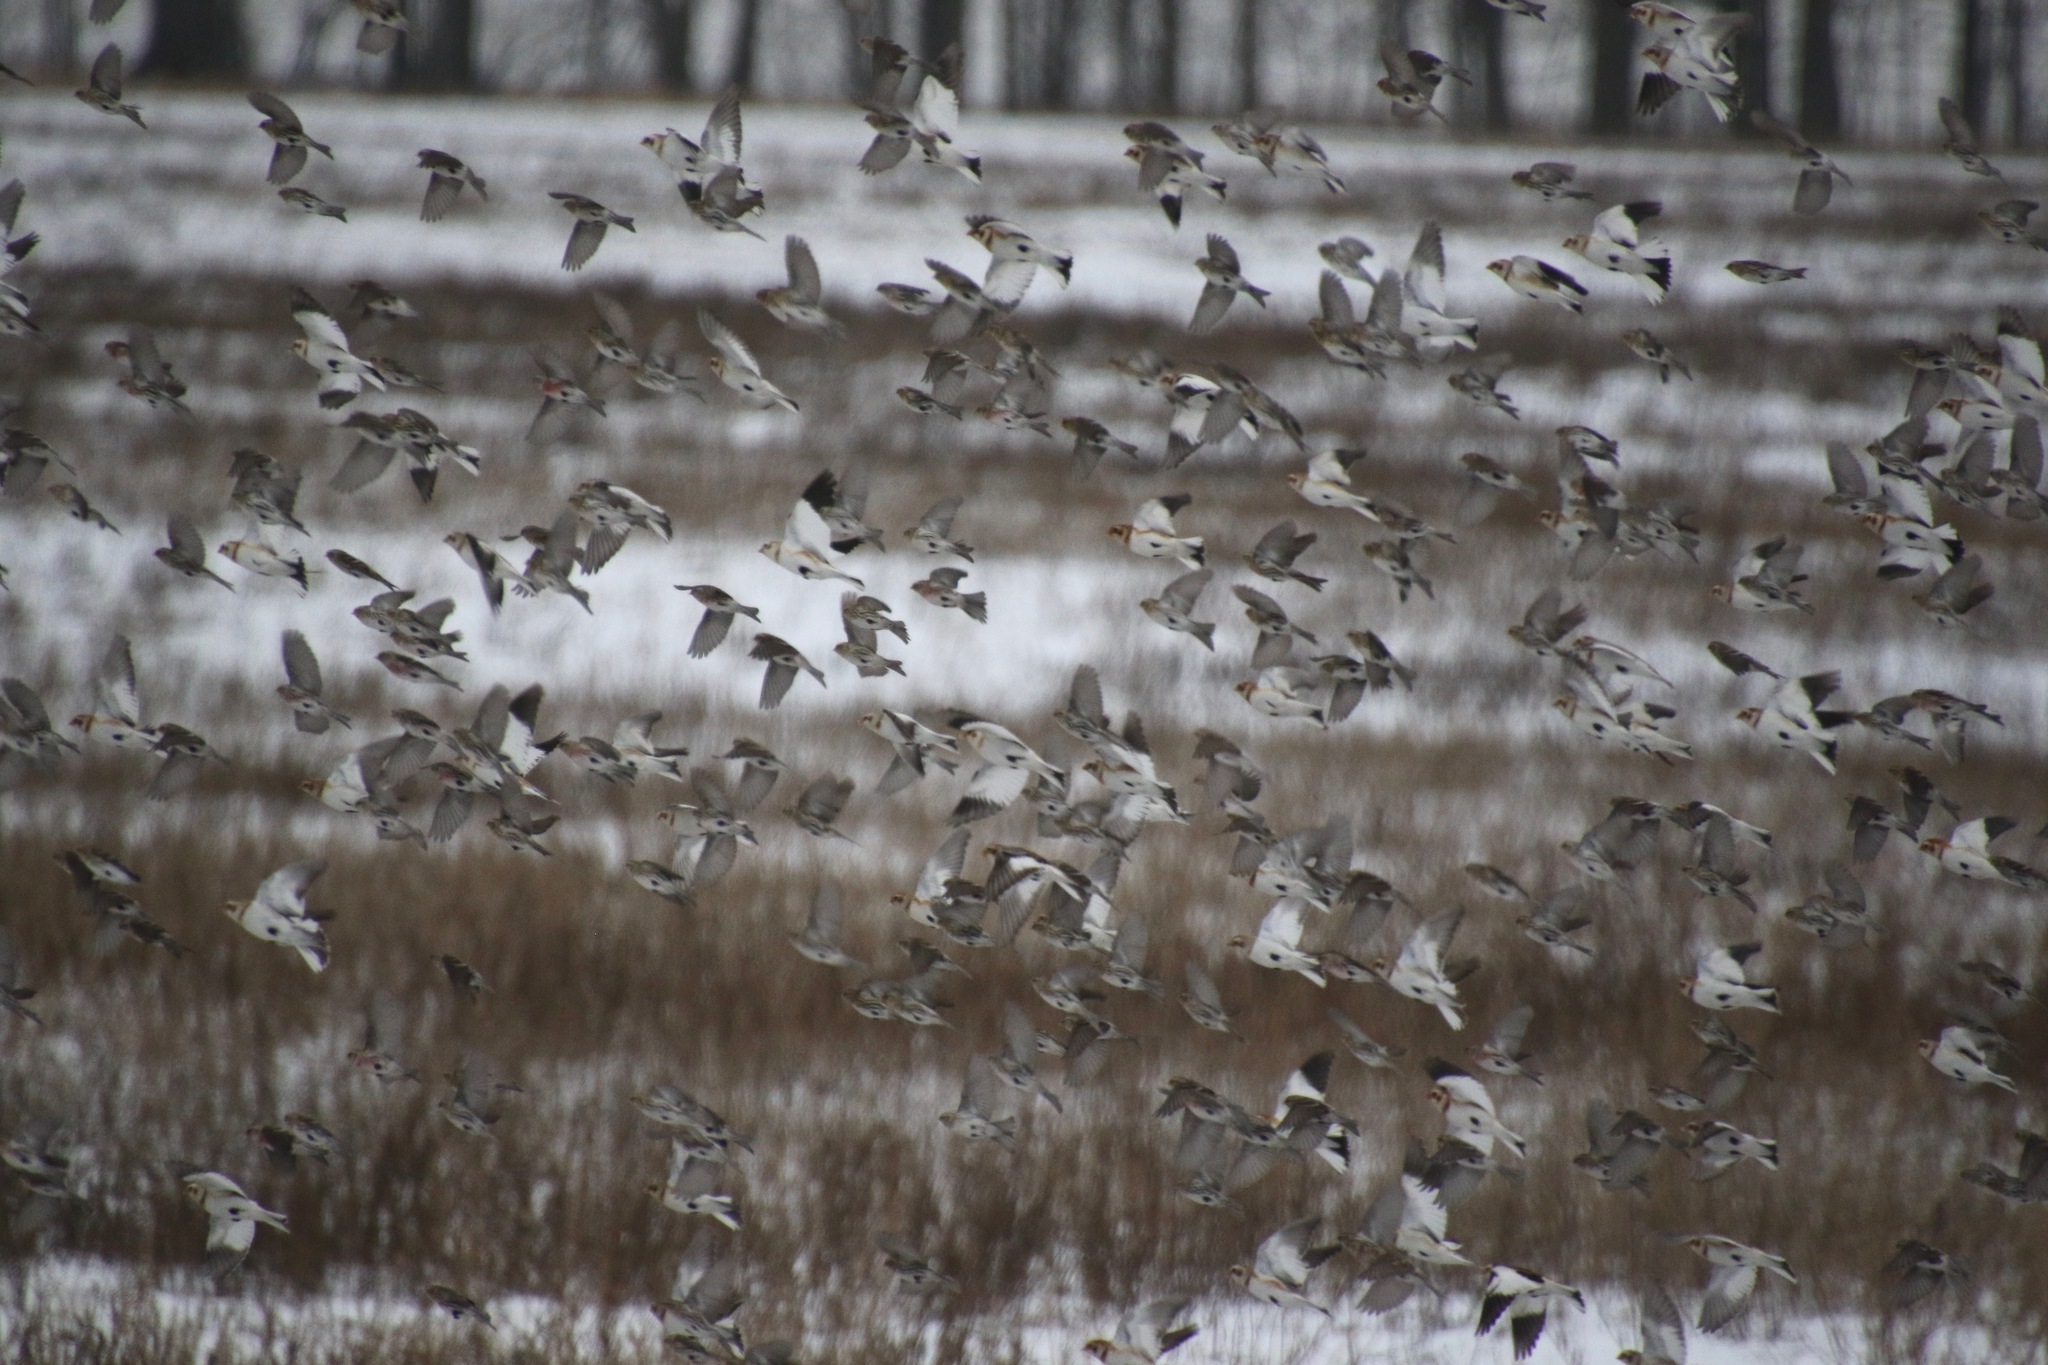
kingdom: Animalia
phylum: Chordata
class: Aves
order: Passeriformes
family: Fringillidae
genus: Acanthis
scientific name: Acanthis flammea
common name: Common redpoll
